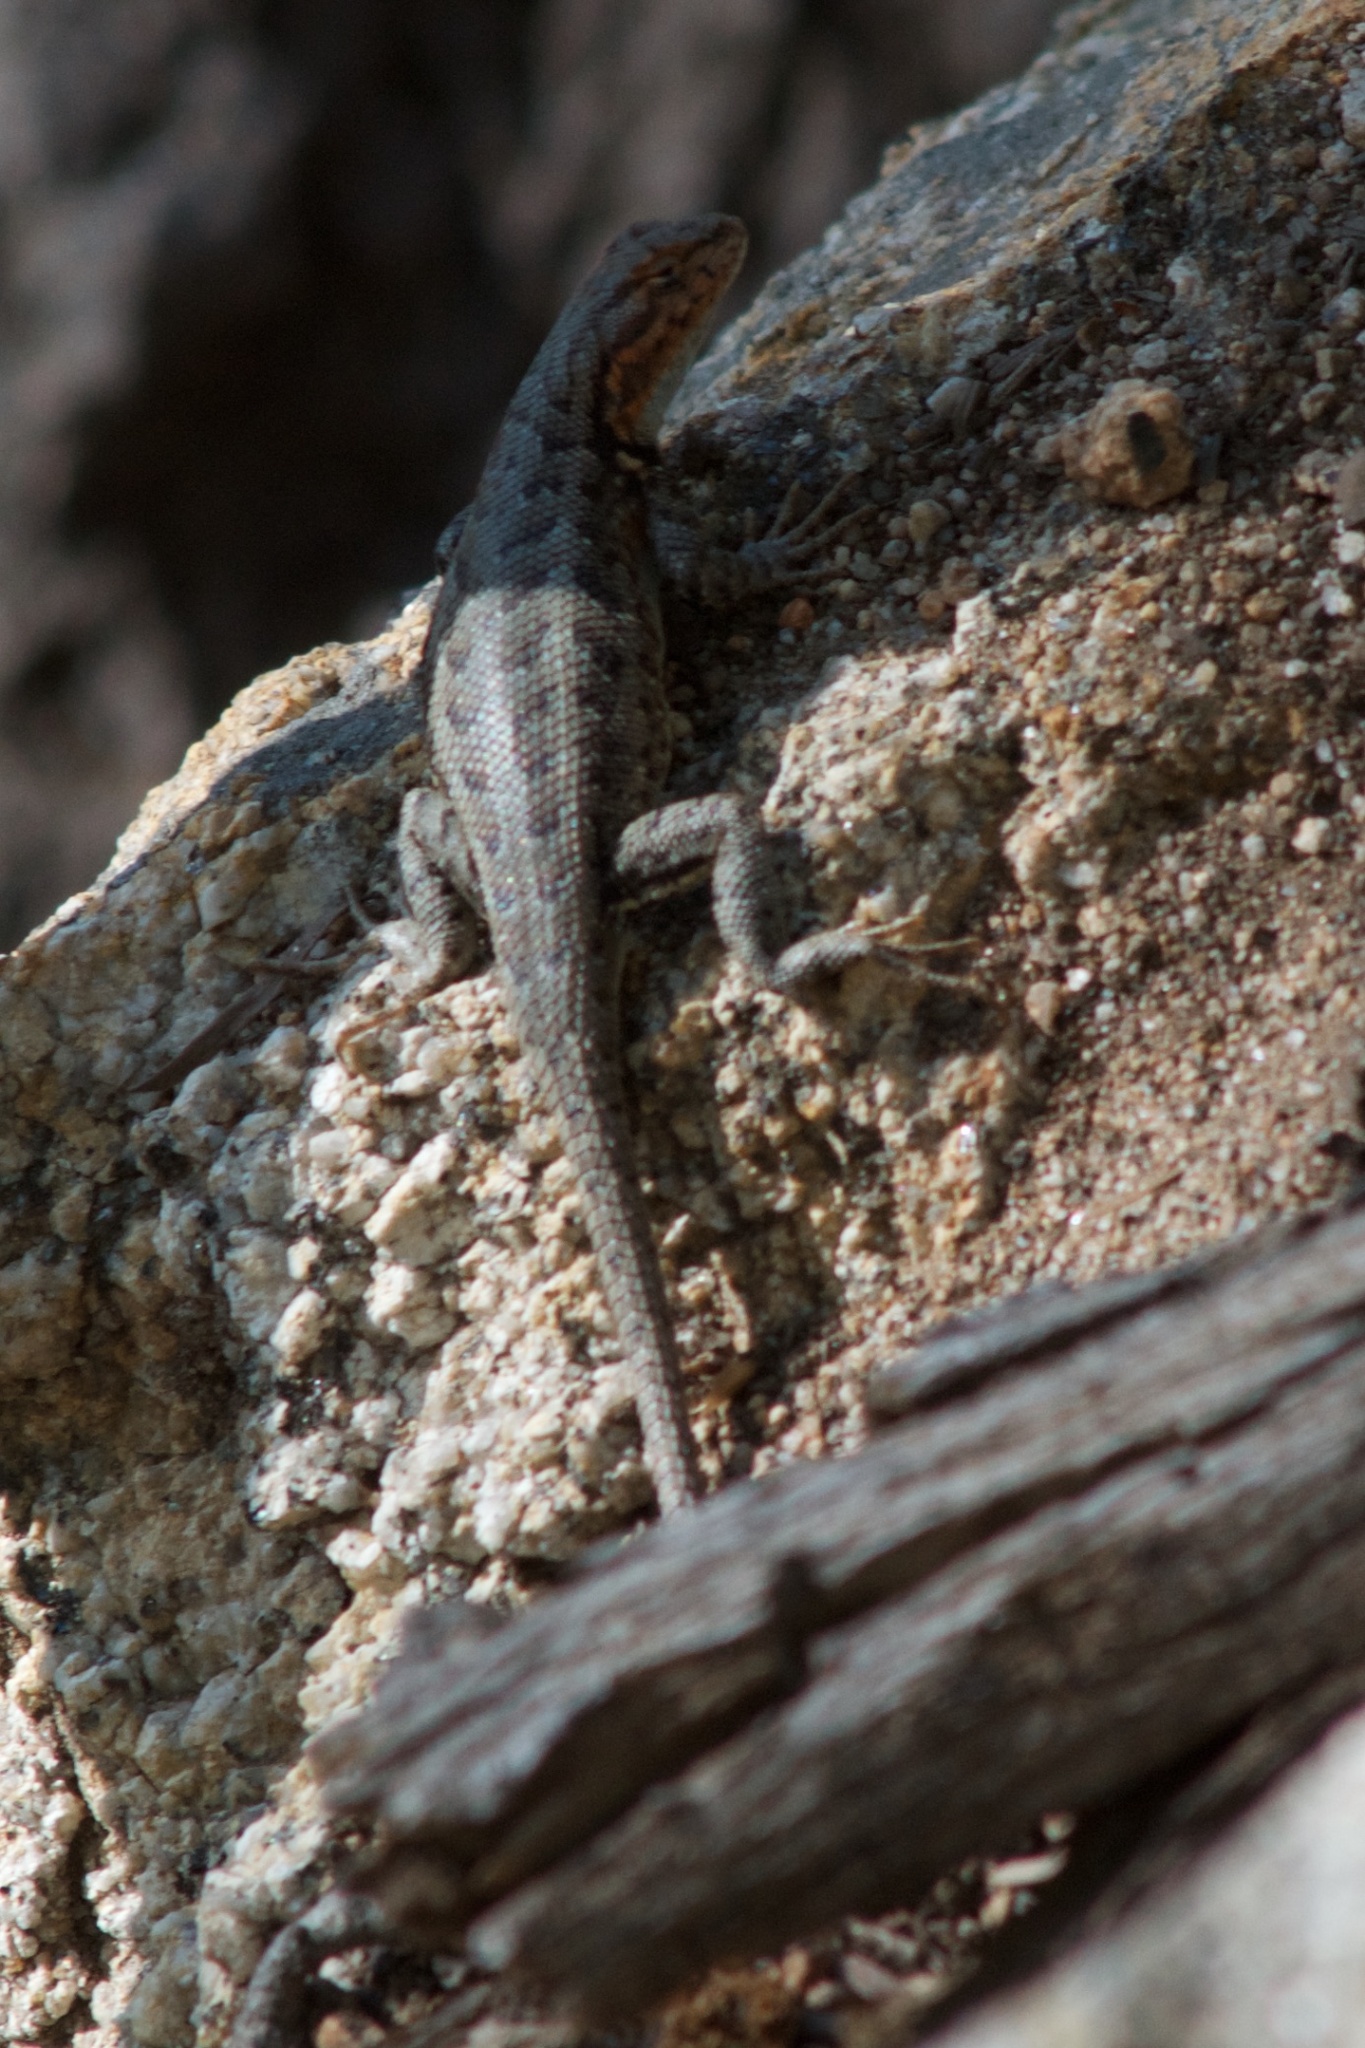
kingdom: Animalia
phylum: Chordata
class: Squamata
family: Phrynosomatidae
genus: Sceloporus
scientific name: Sceloporus graciosus
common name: Sagebrush lizard
